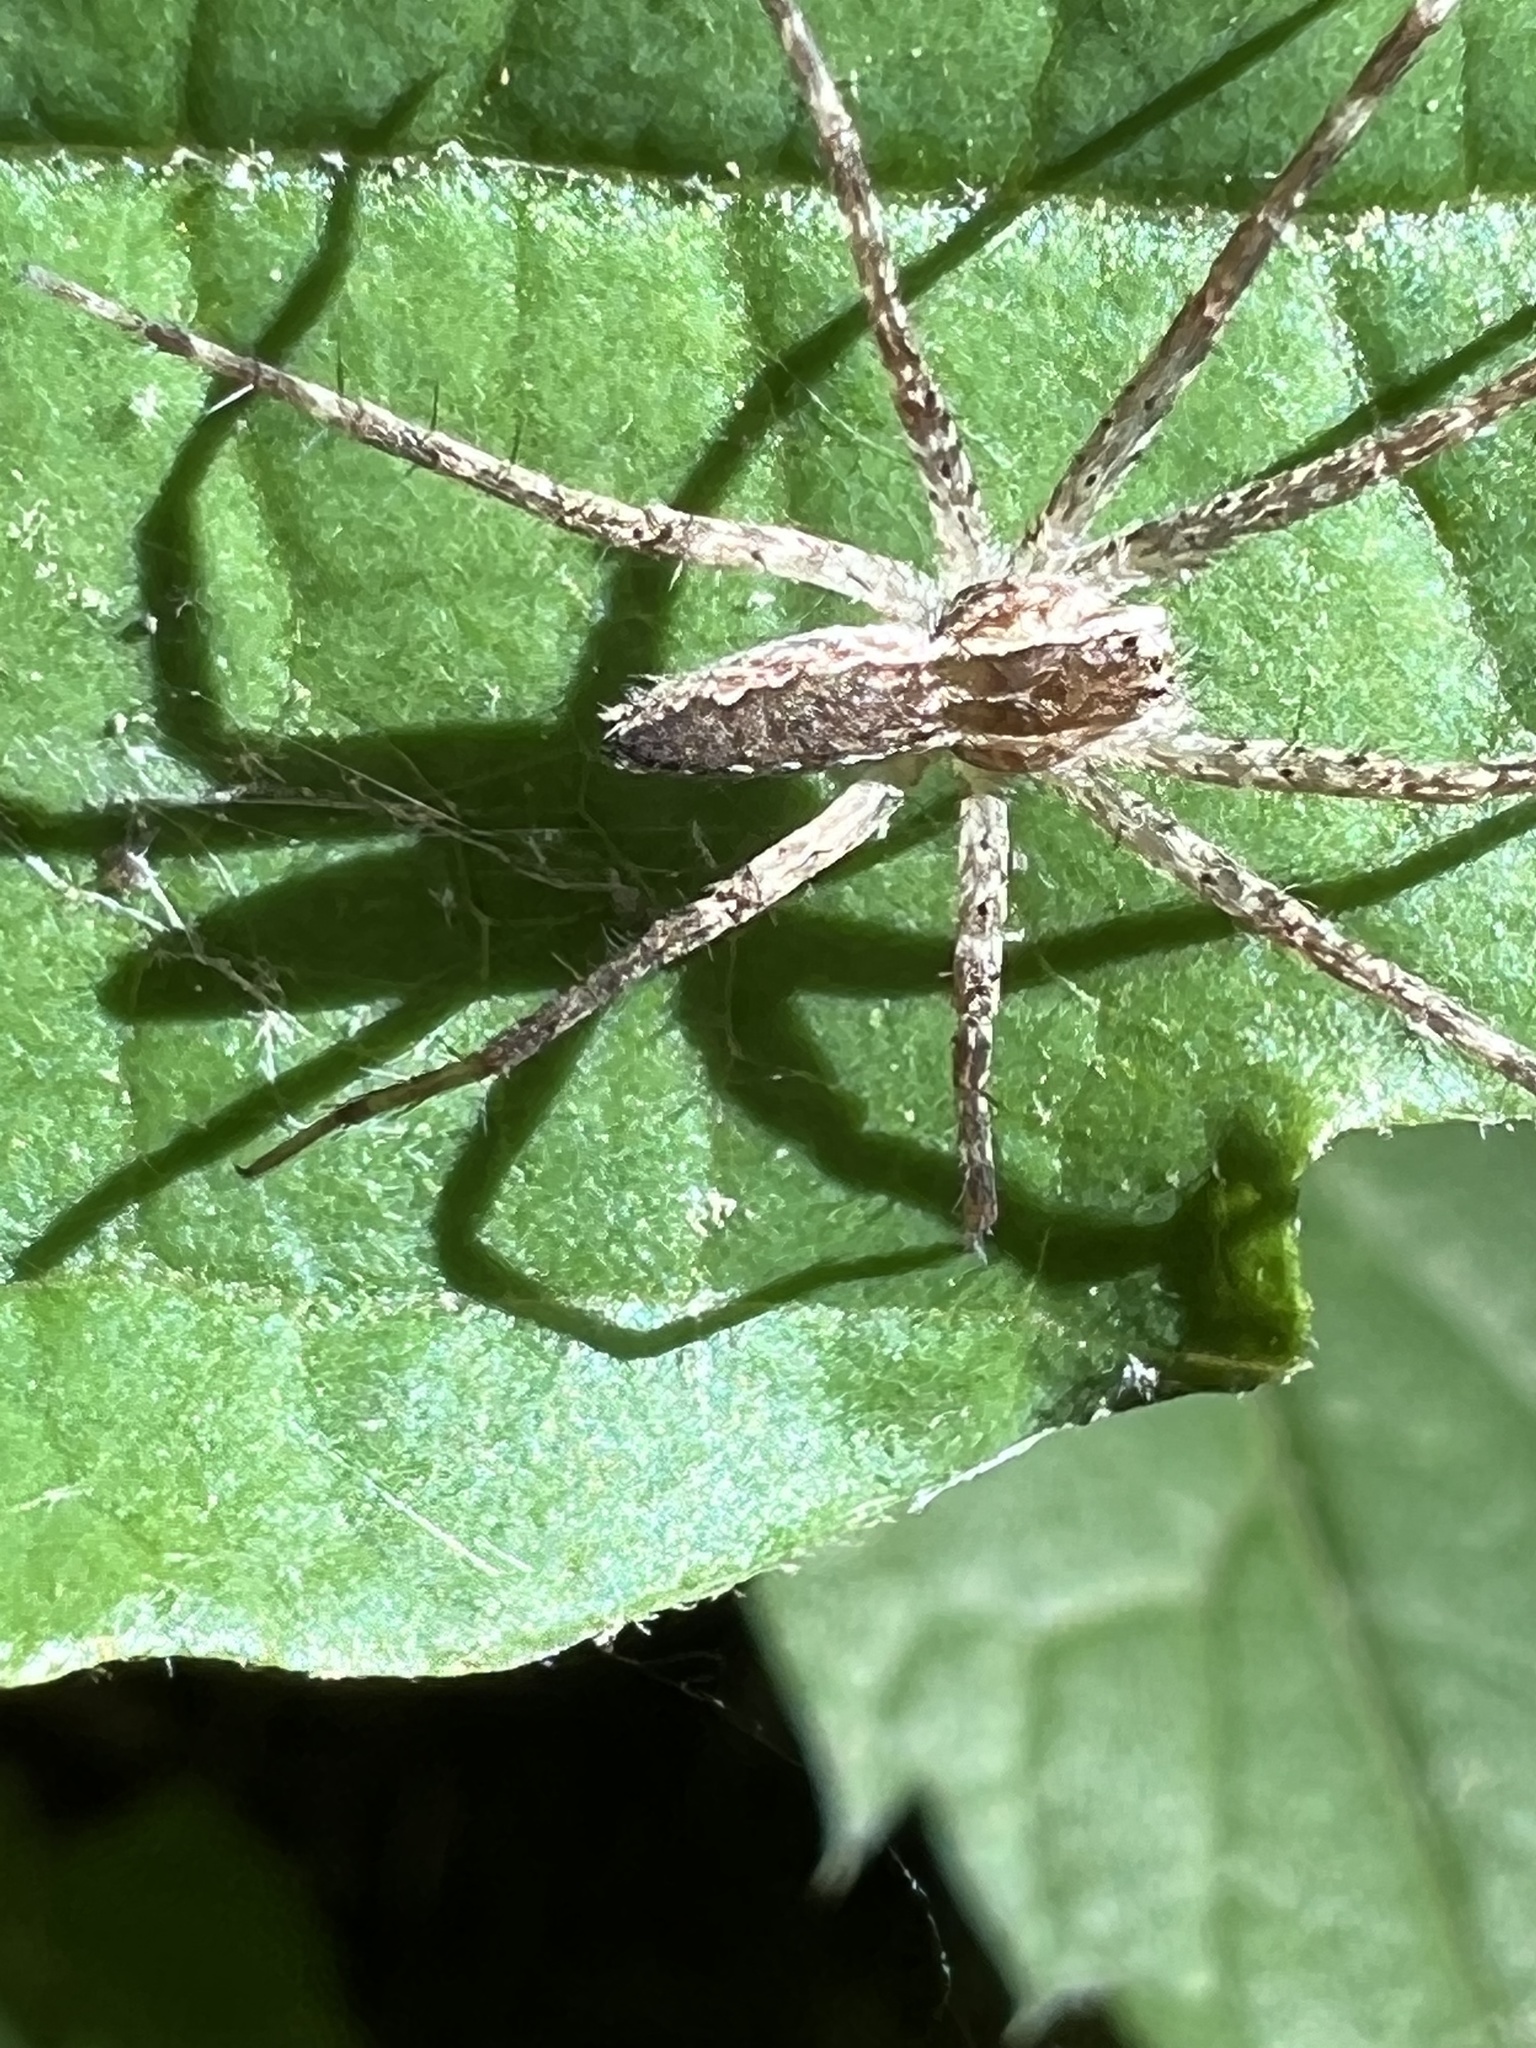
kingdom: Animalia
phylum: Arthropoda
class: Arachnida
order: Araneae
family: Pisauridae
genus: Pisaurina
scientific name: Pisaurina mira
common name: American nursery web spider
